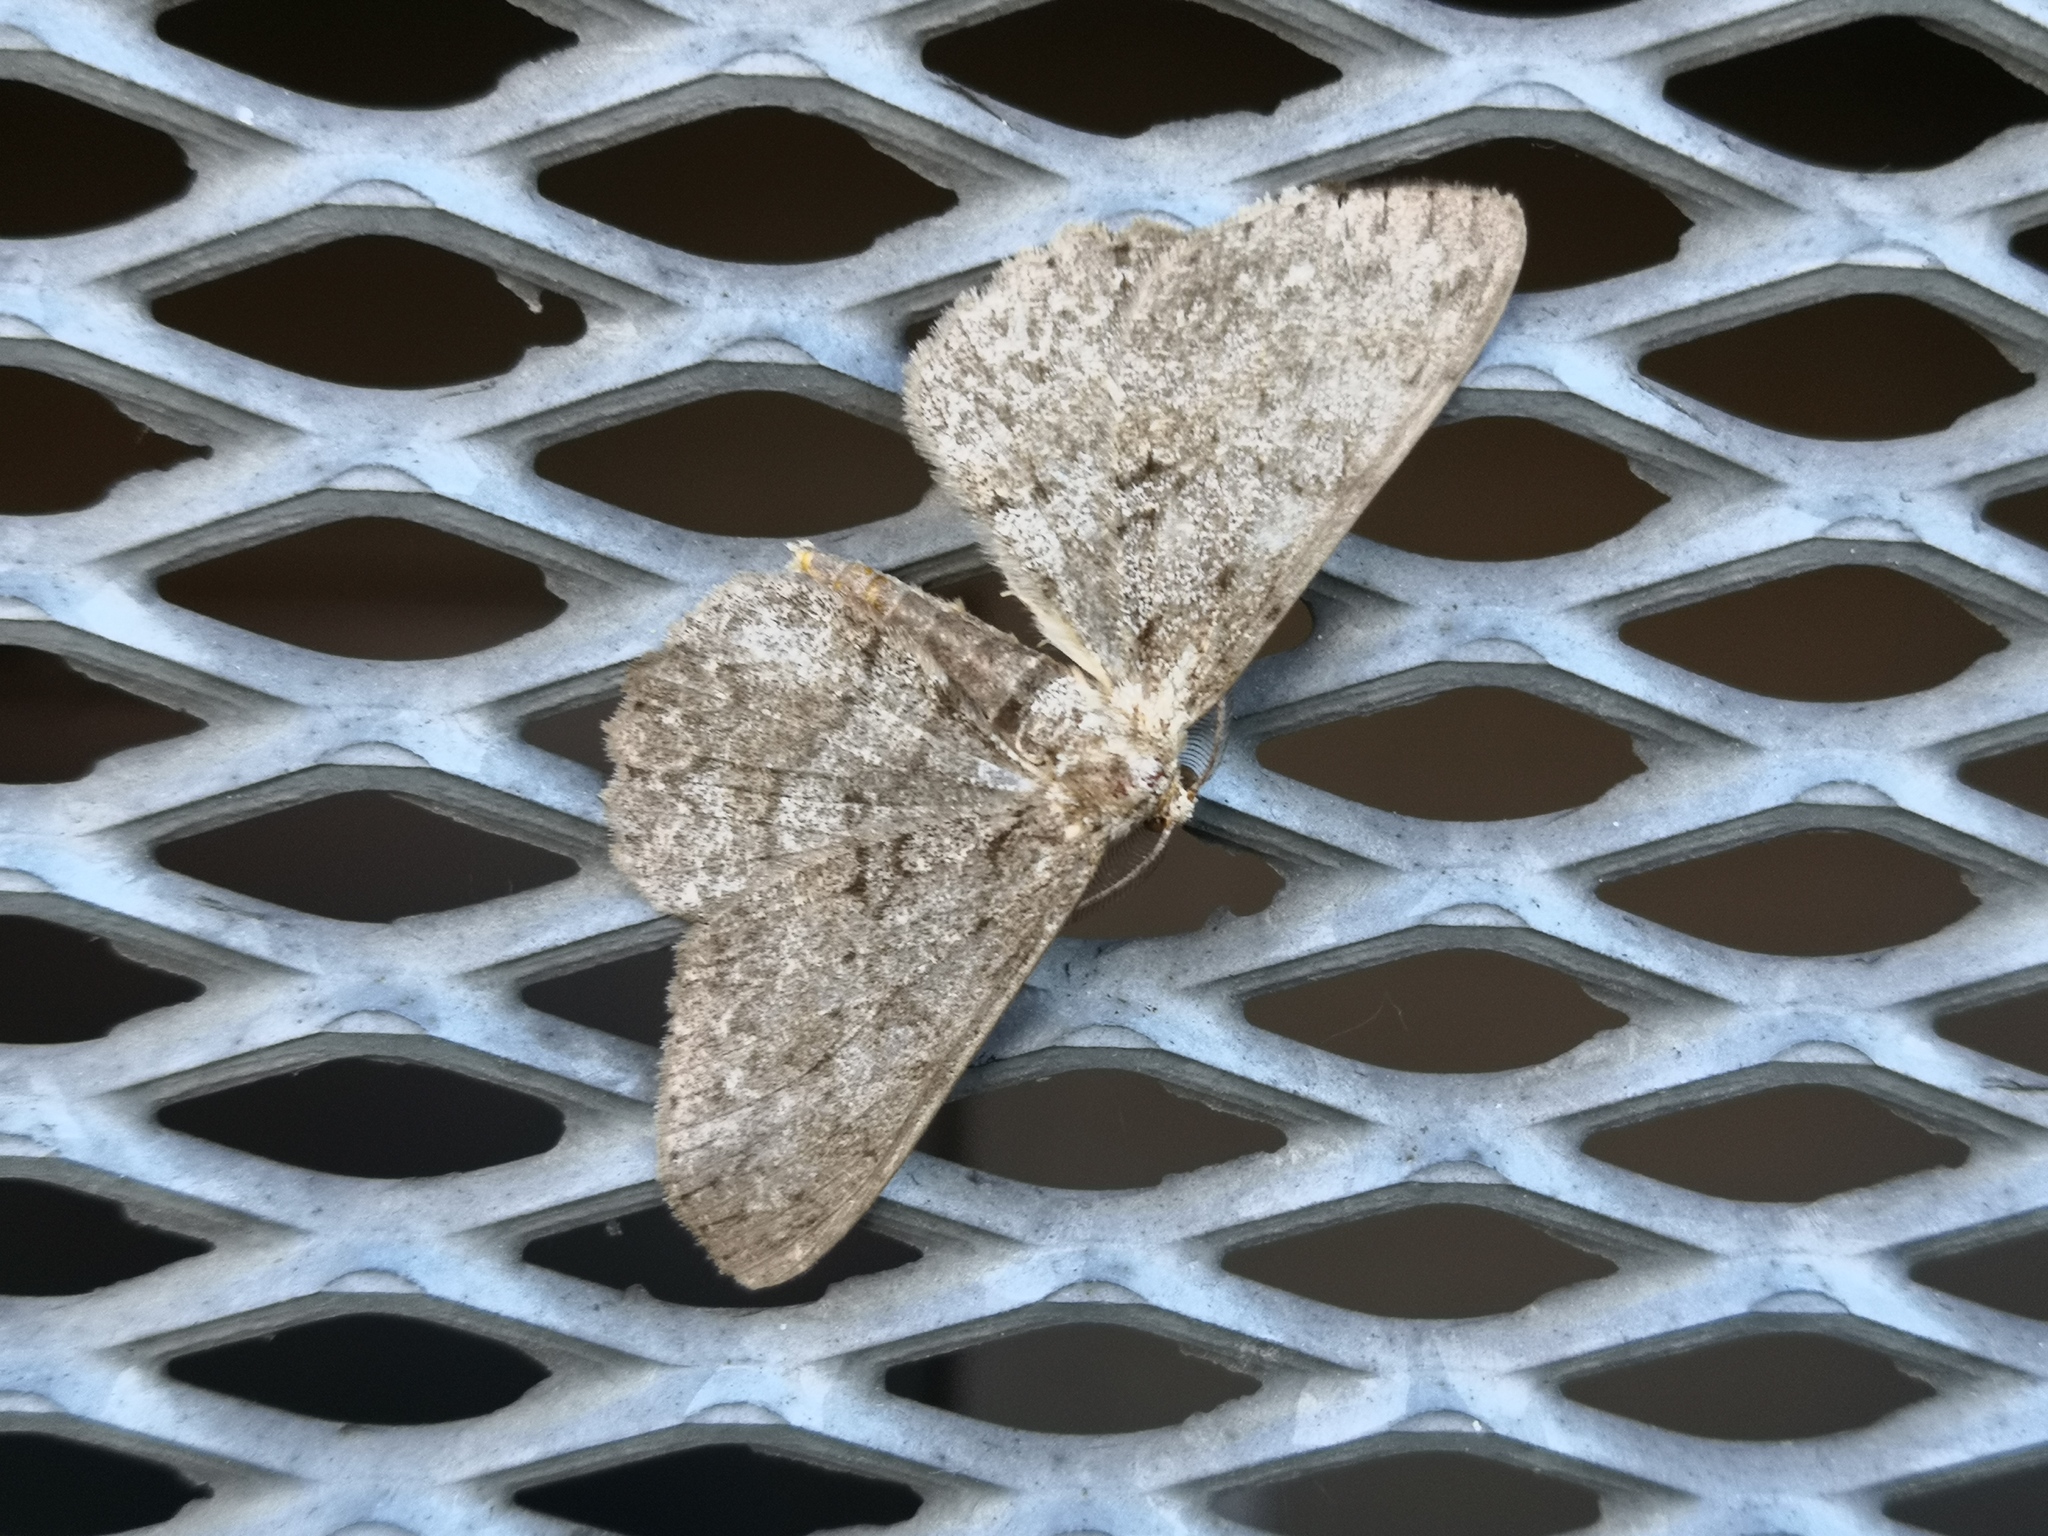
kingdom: Animalia
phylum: Arthropoda
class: Insecta
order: Lepidoptera
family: Geometridae
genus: Hypomecis
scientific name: Hypomecis punctinalis
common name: Pale oak beauty
